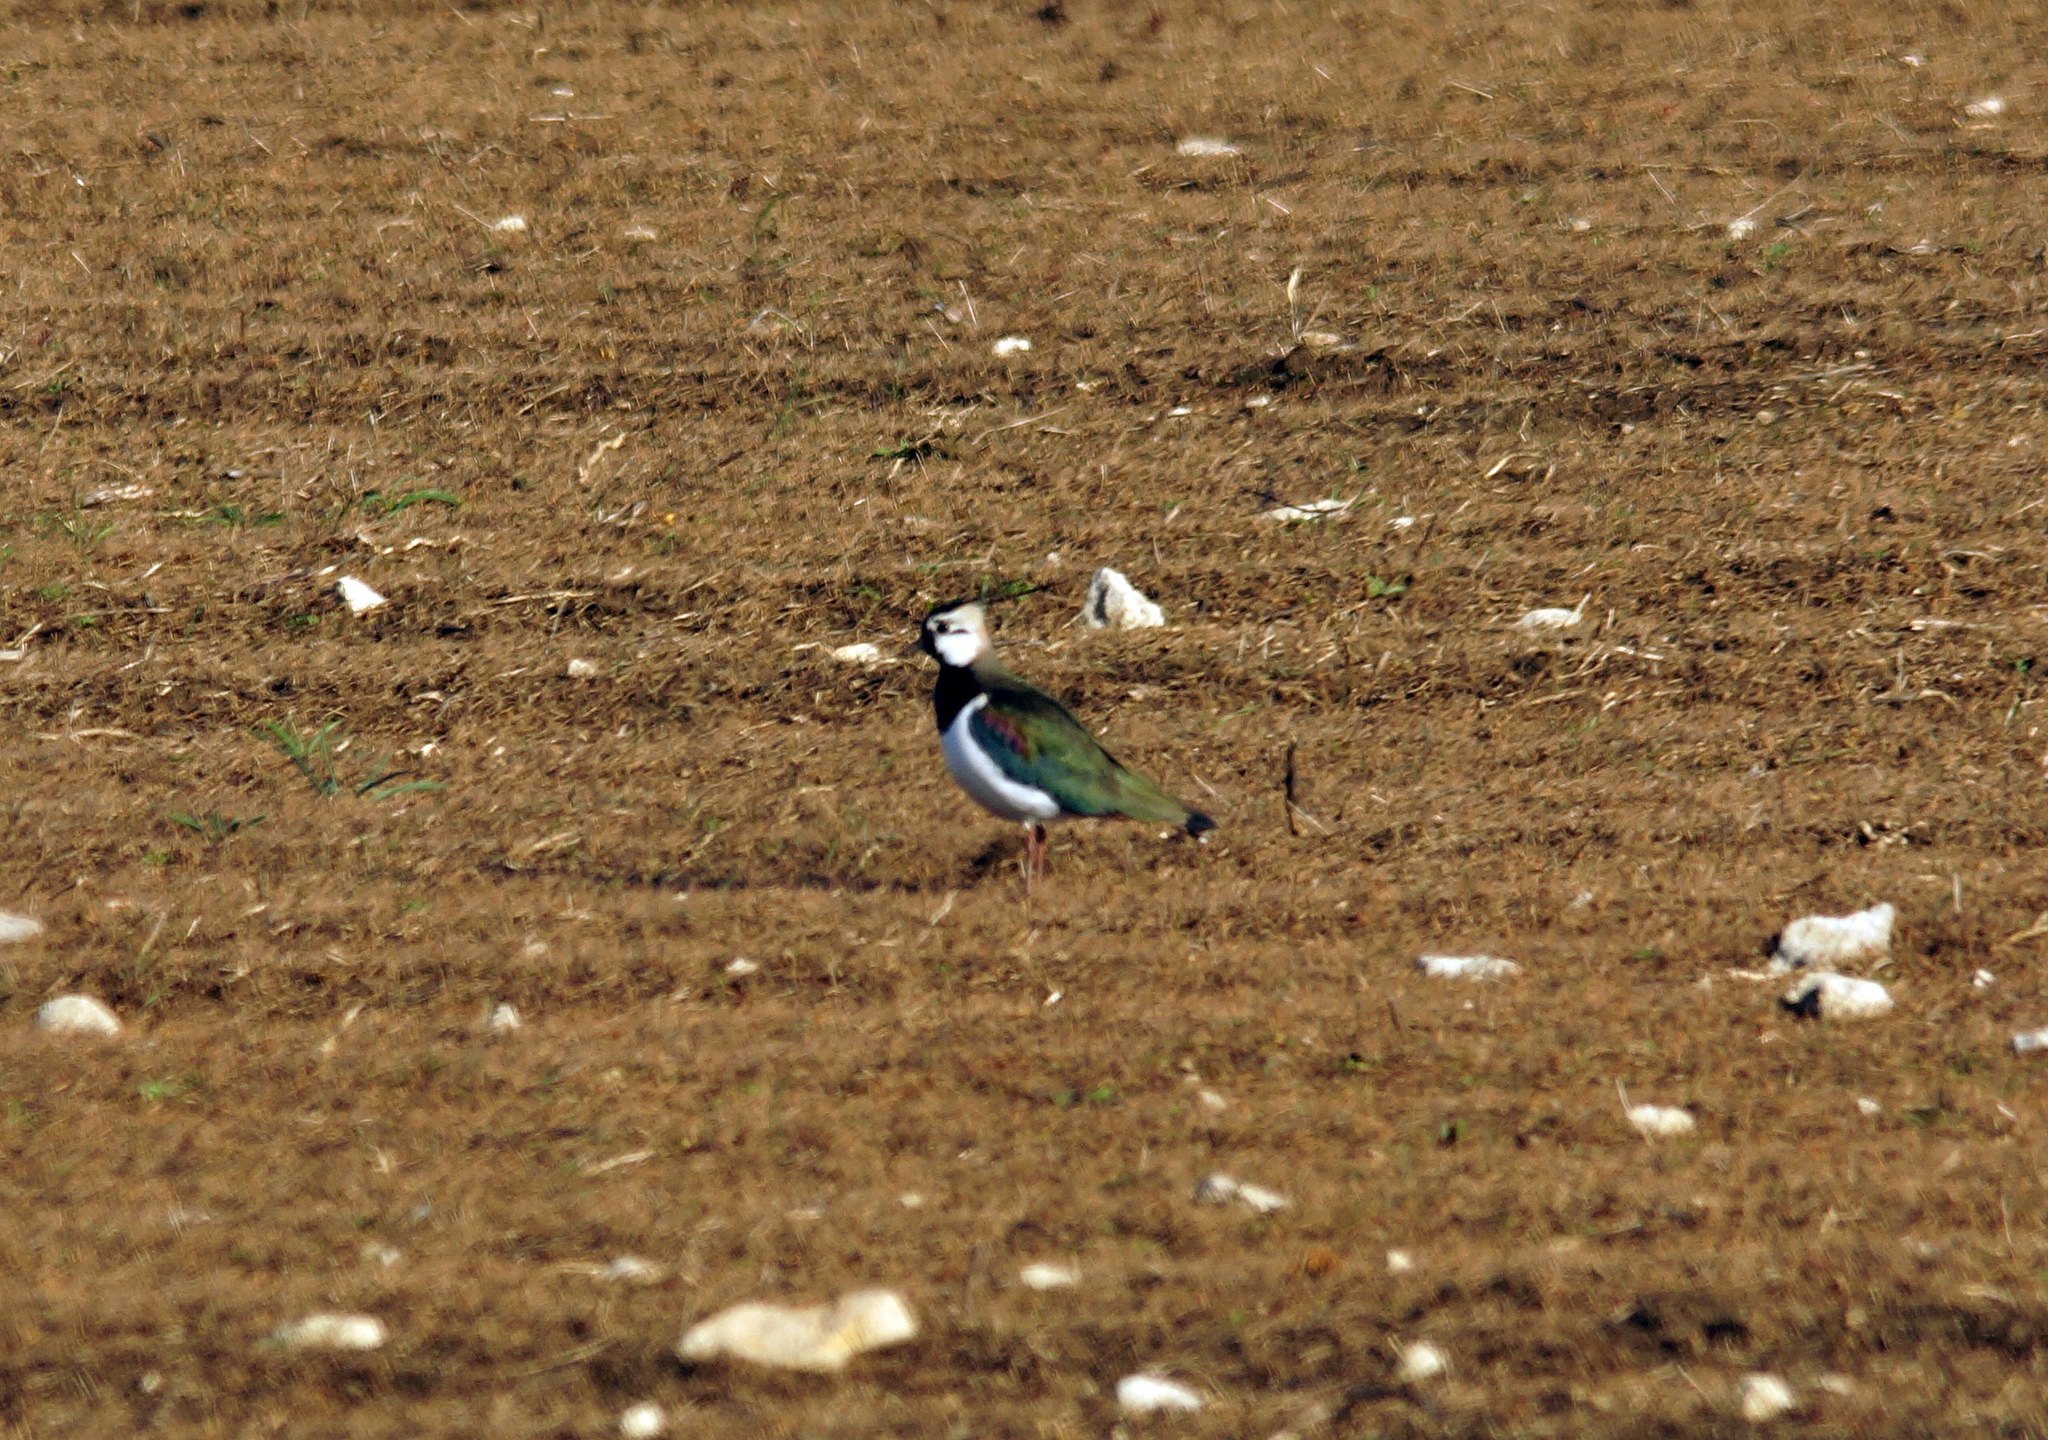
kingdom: Animalia
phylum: Chordata
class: Aves
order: Charadriiformes
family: Charadriidae
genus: Vanellus
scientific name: Vanellus vanellus
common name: Northern lapwing
